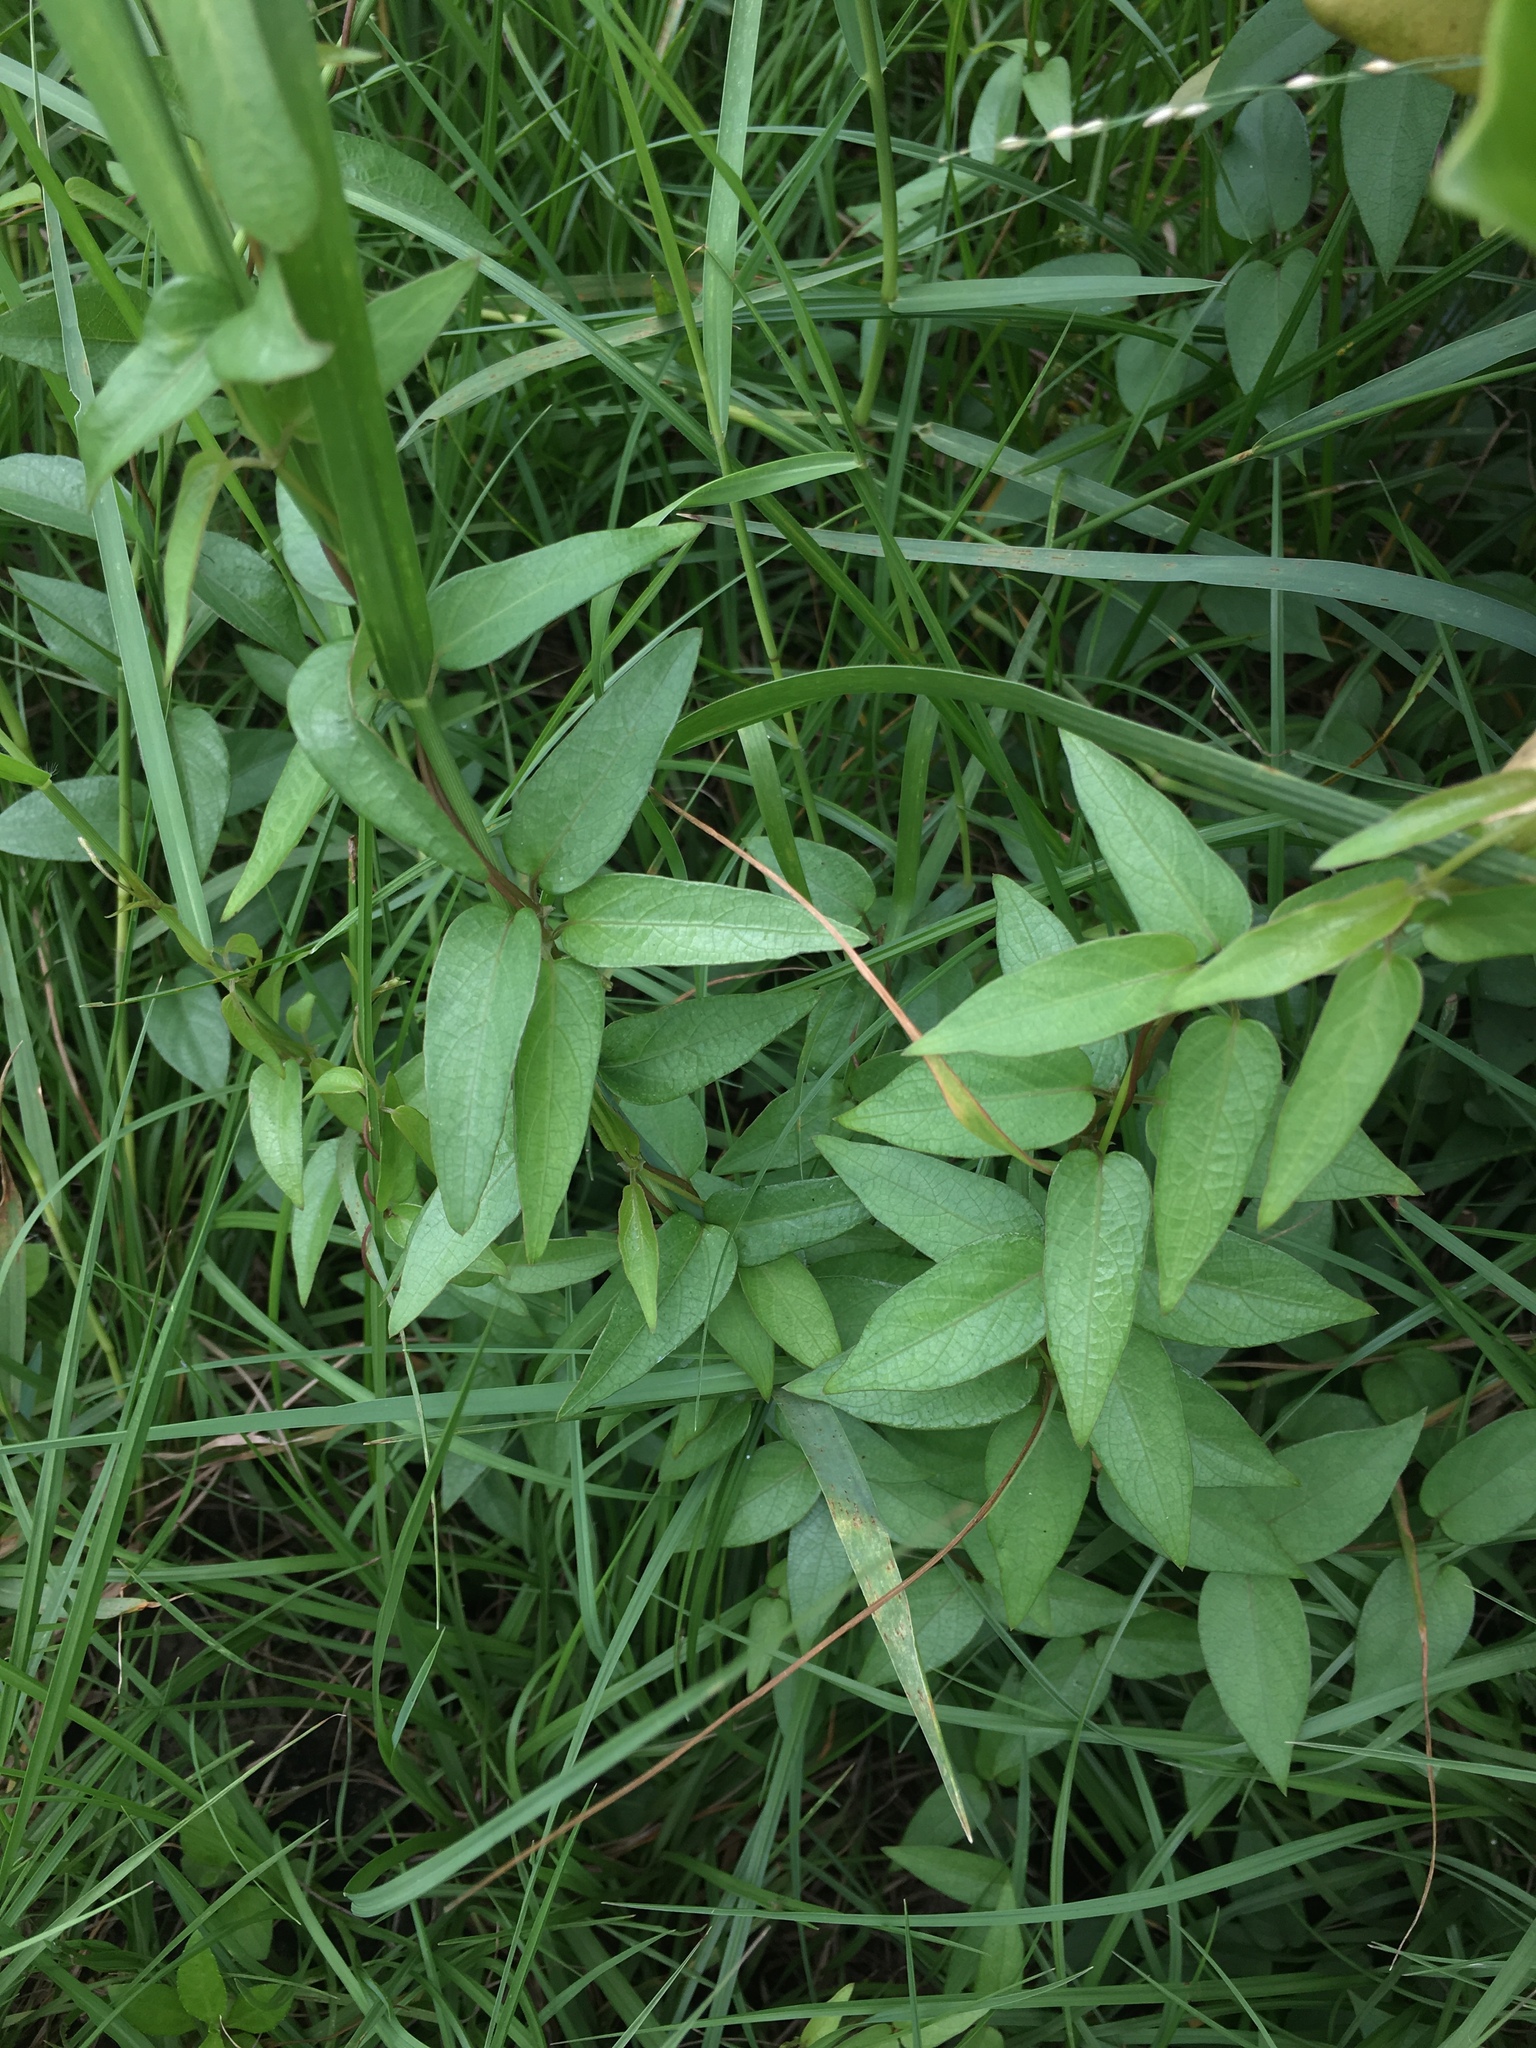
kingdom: Plantae
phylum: Tracheophyta
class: Magnoliopsida
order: Gentianales
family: Rubiaceae
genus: Paederia
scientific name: Paederia foetida
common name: Stinkvine
